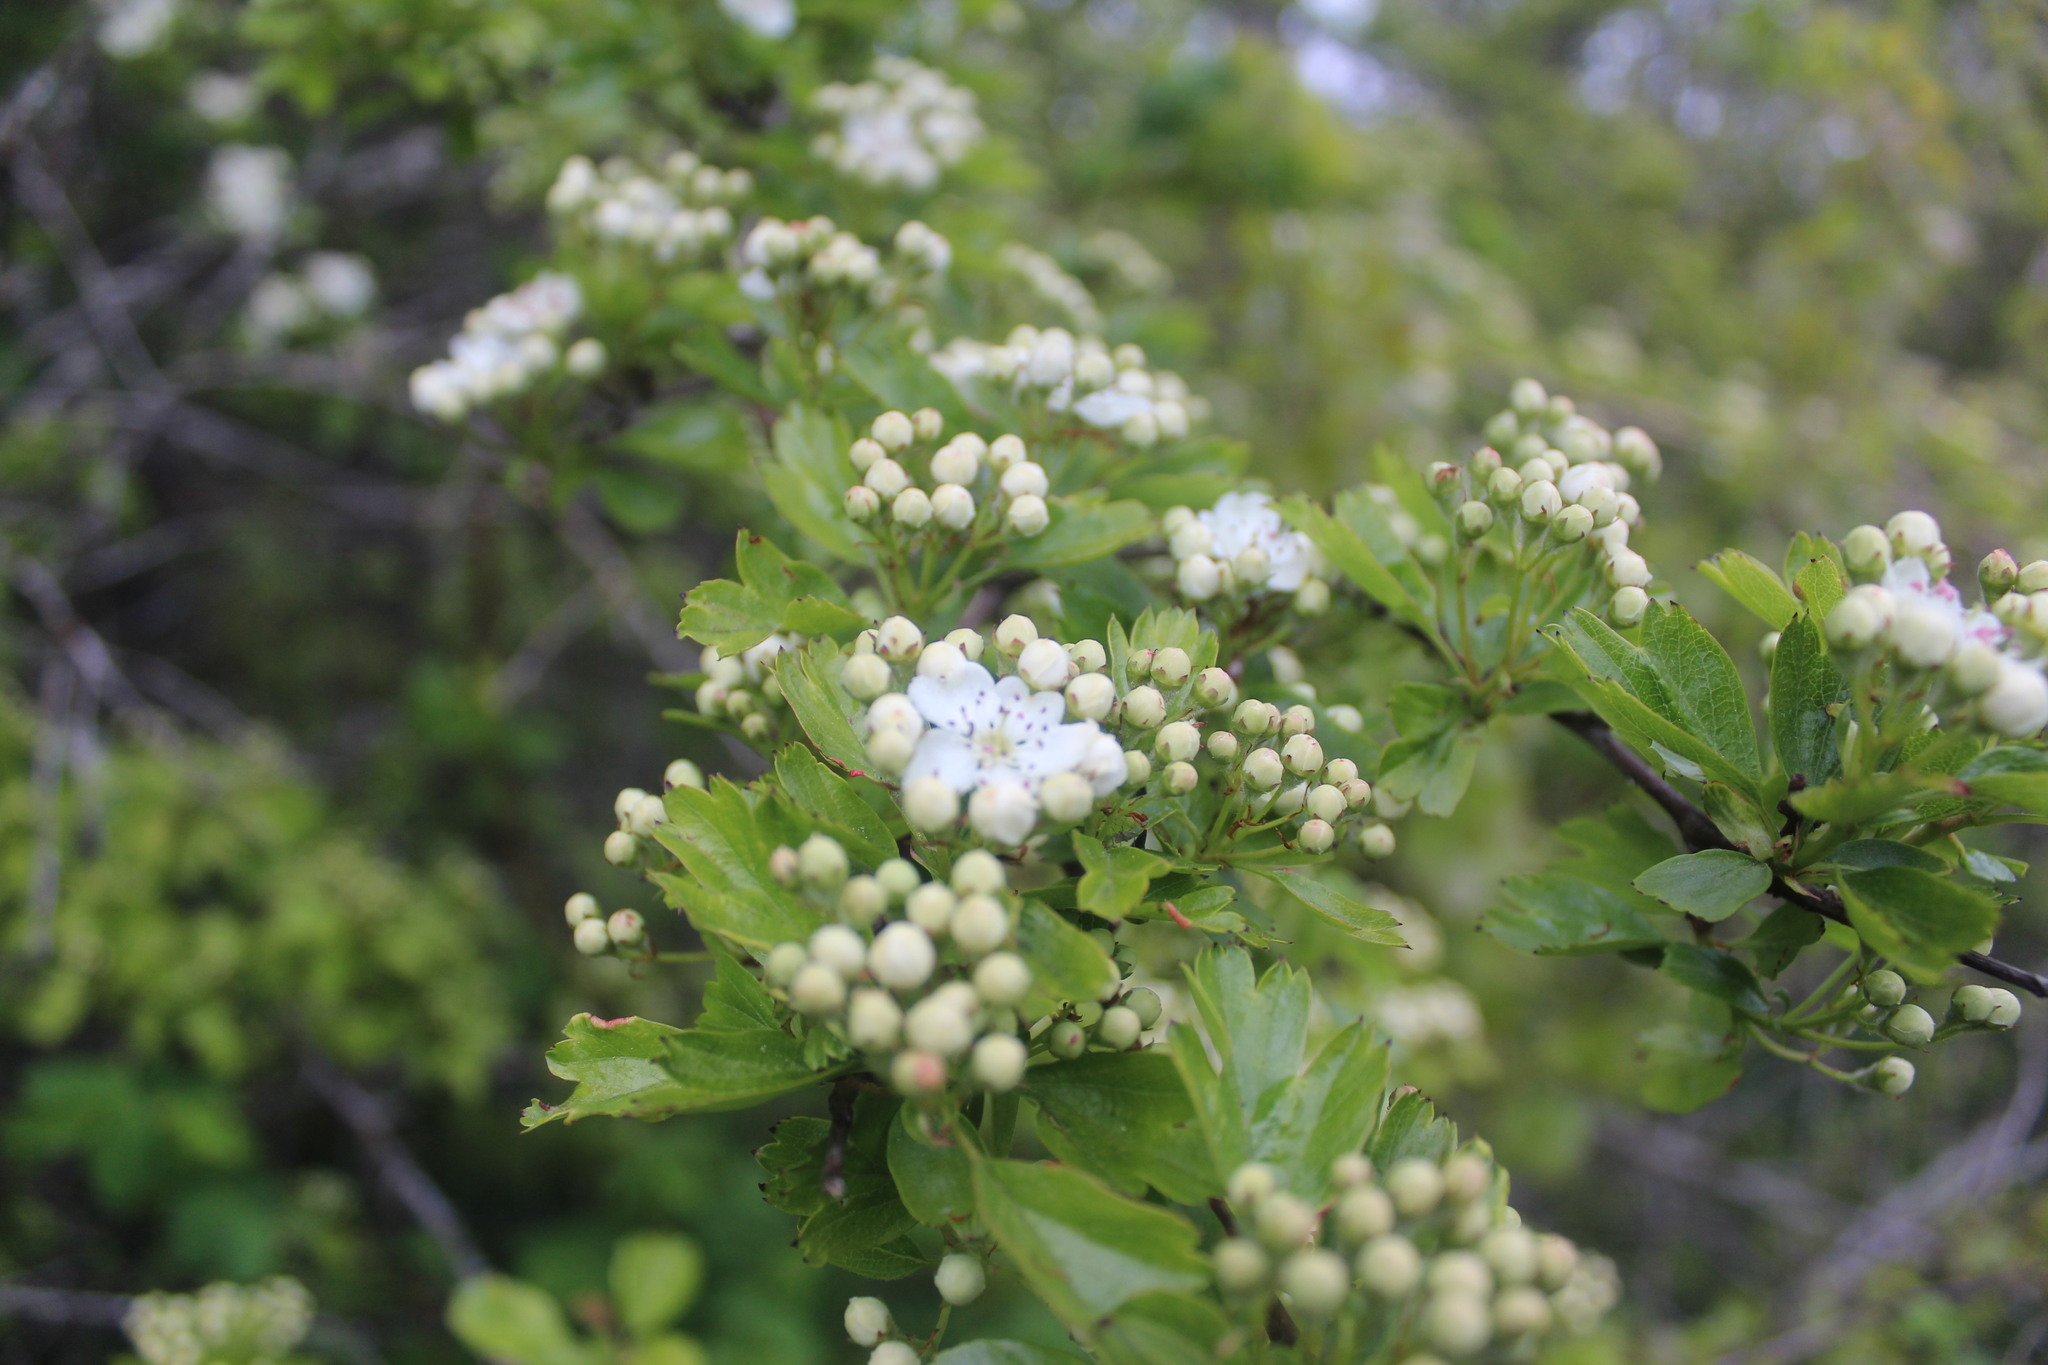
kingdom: Plantae
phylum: Tracheophyta
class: Magnoliopsida
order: Rosales
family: Rosaceae
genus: Crataegus
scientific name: Crataegus monogyna
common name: Hawthorn
